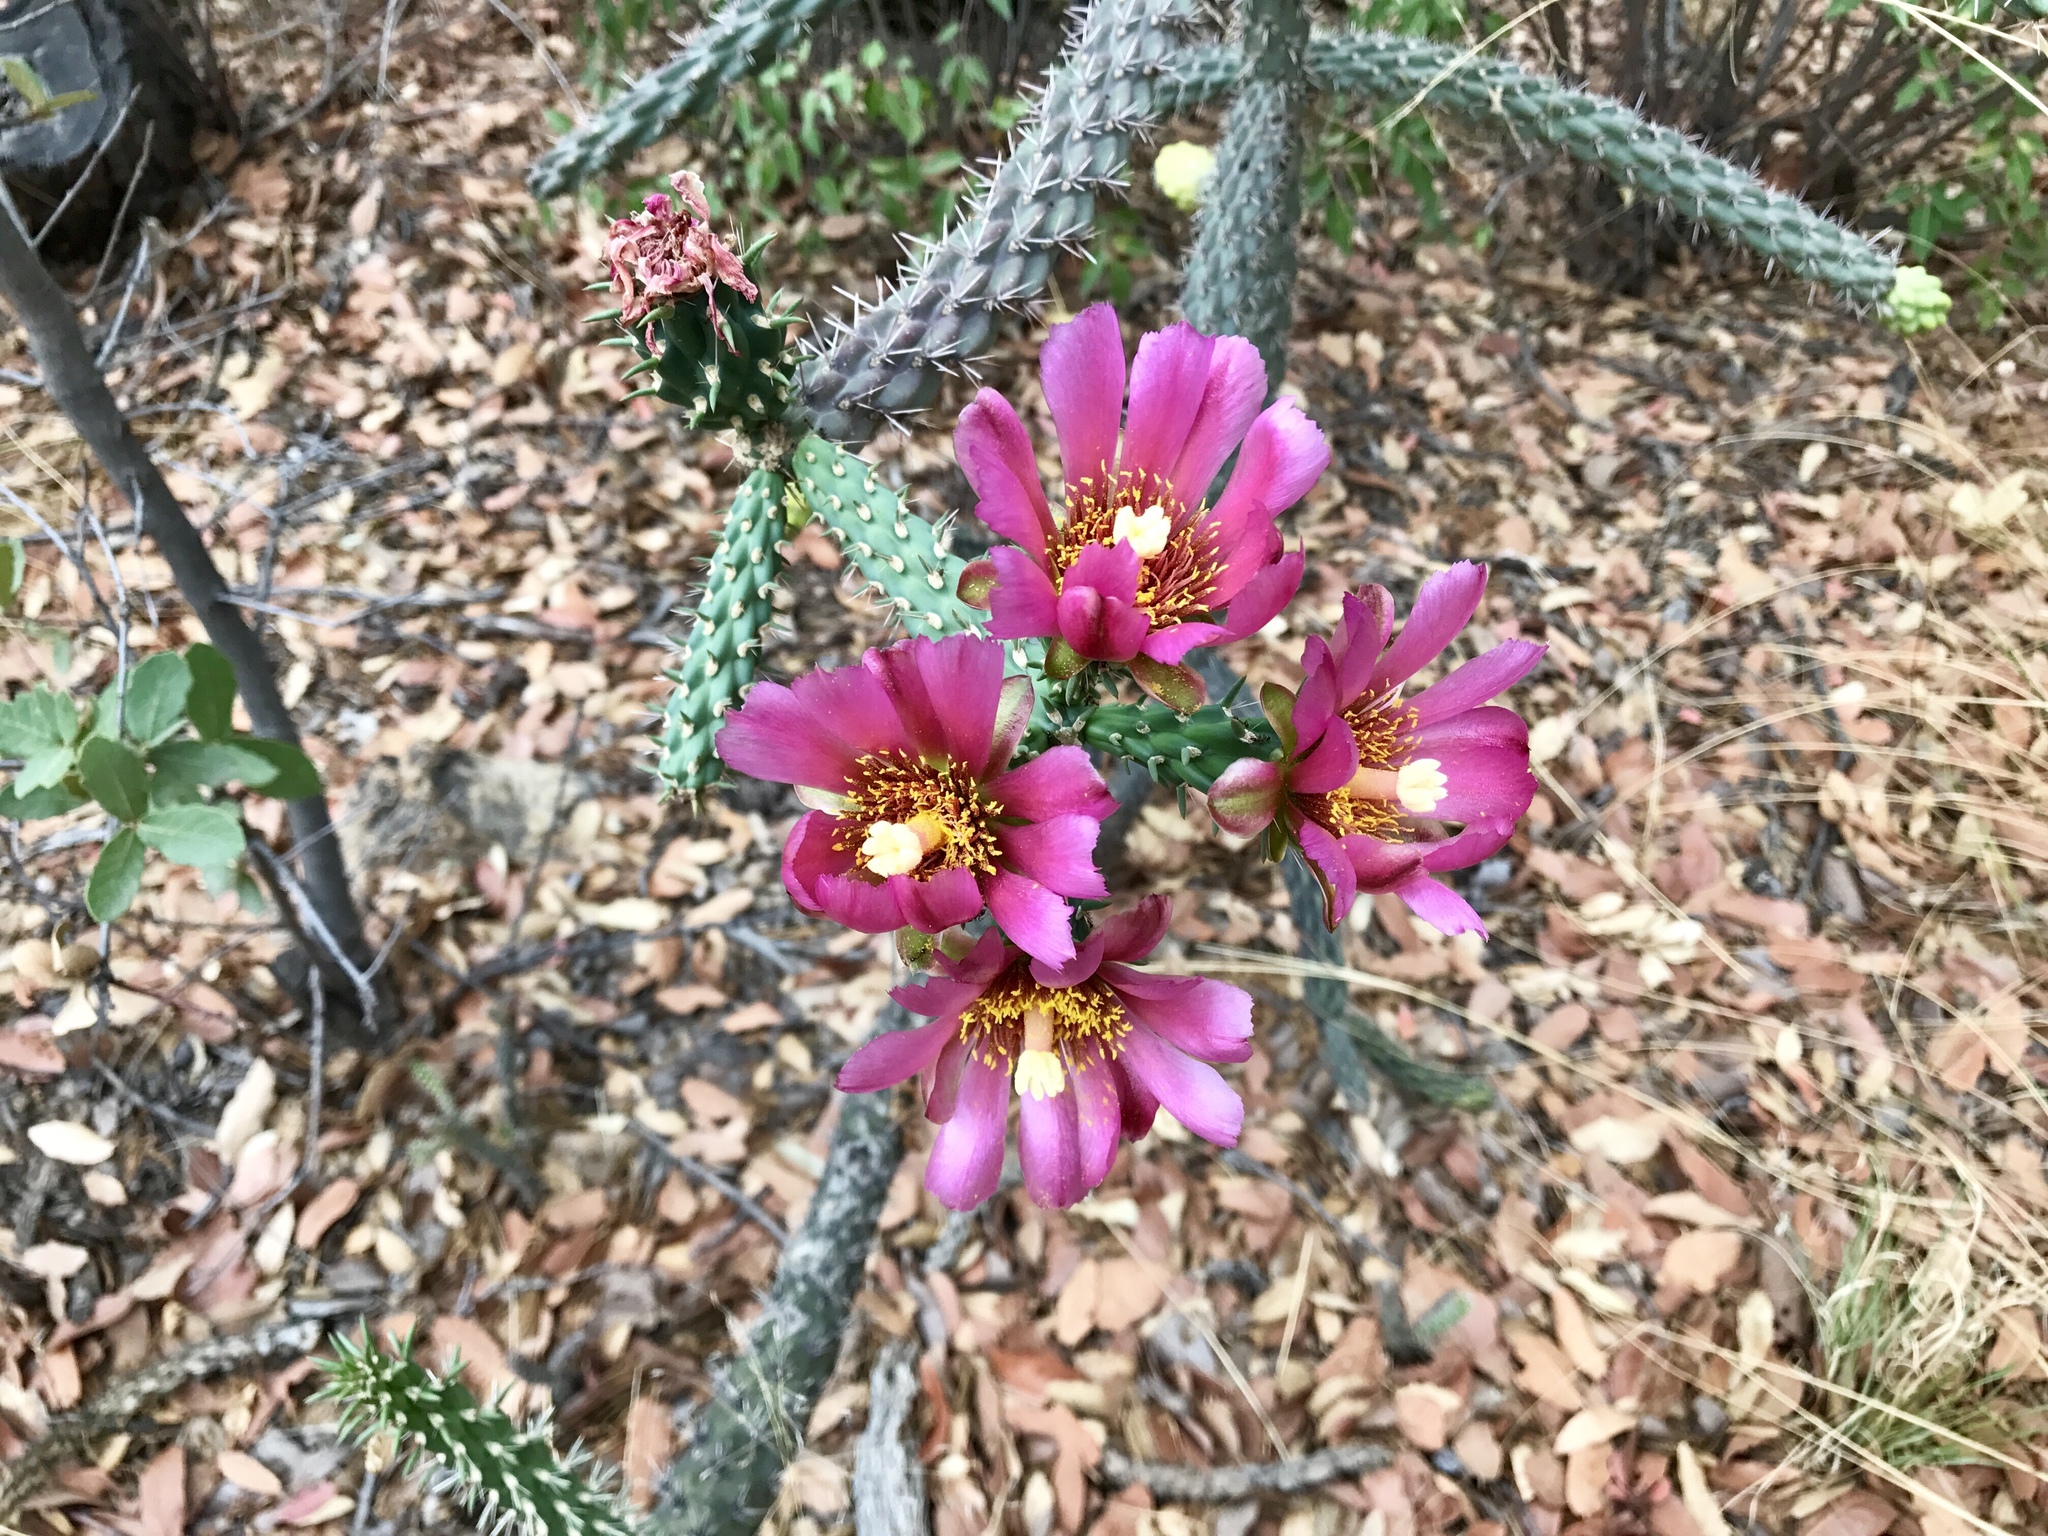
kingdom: Plantae
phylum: Tracheophyta
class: Magnoliopsida
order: Caryophyllales
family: Cactaceae
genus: Cylindropuntia
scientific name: Cylindropuntia imbricata
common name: Candelabrum cactus
